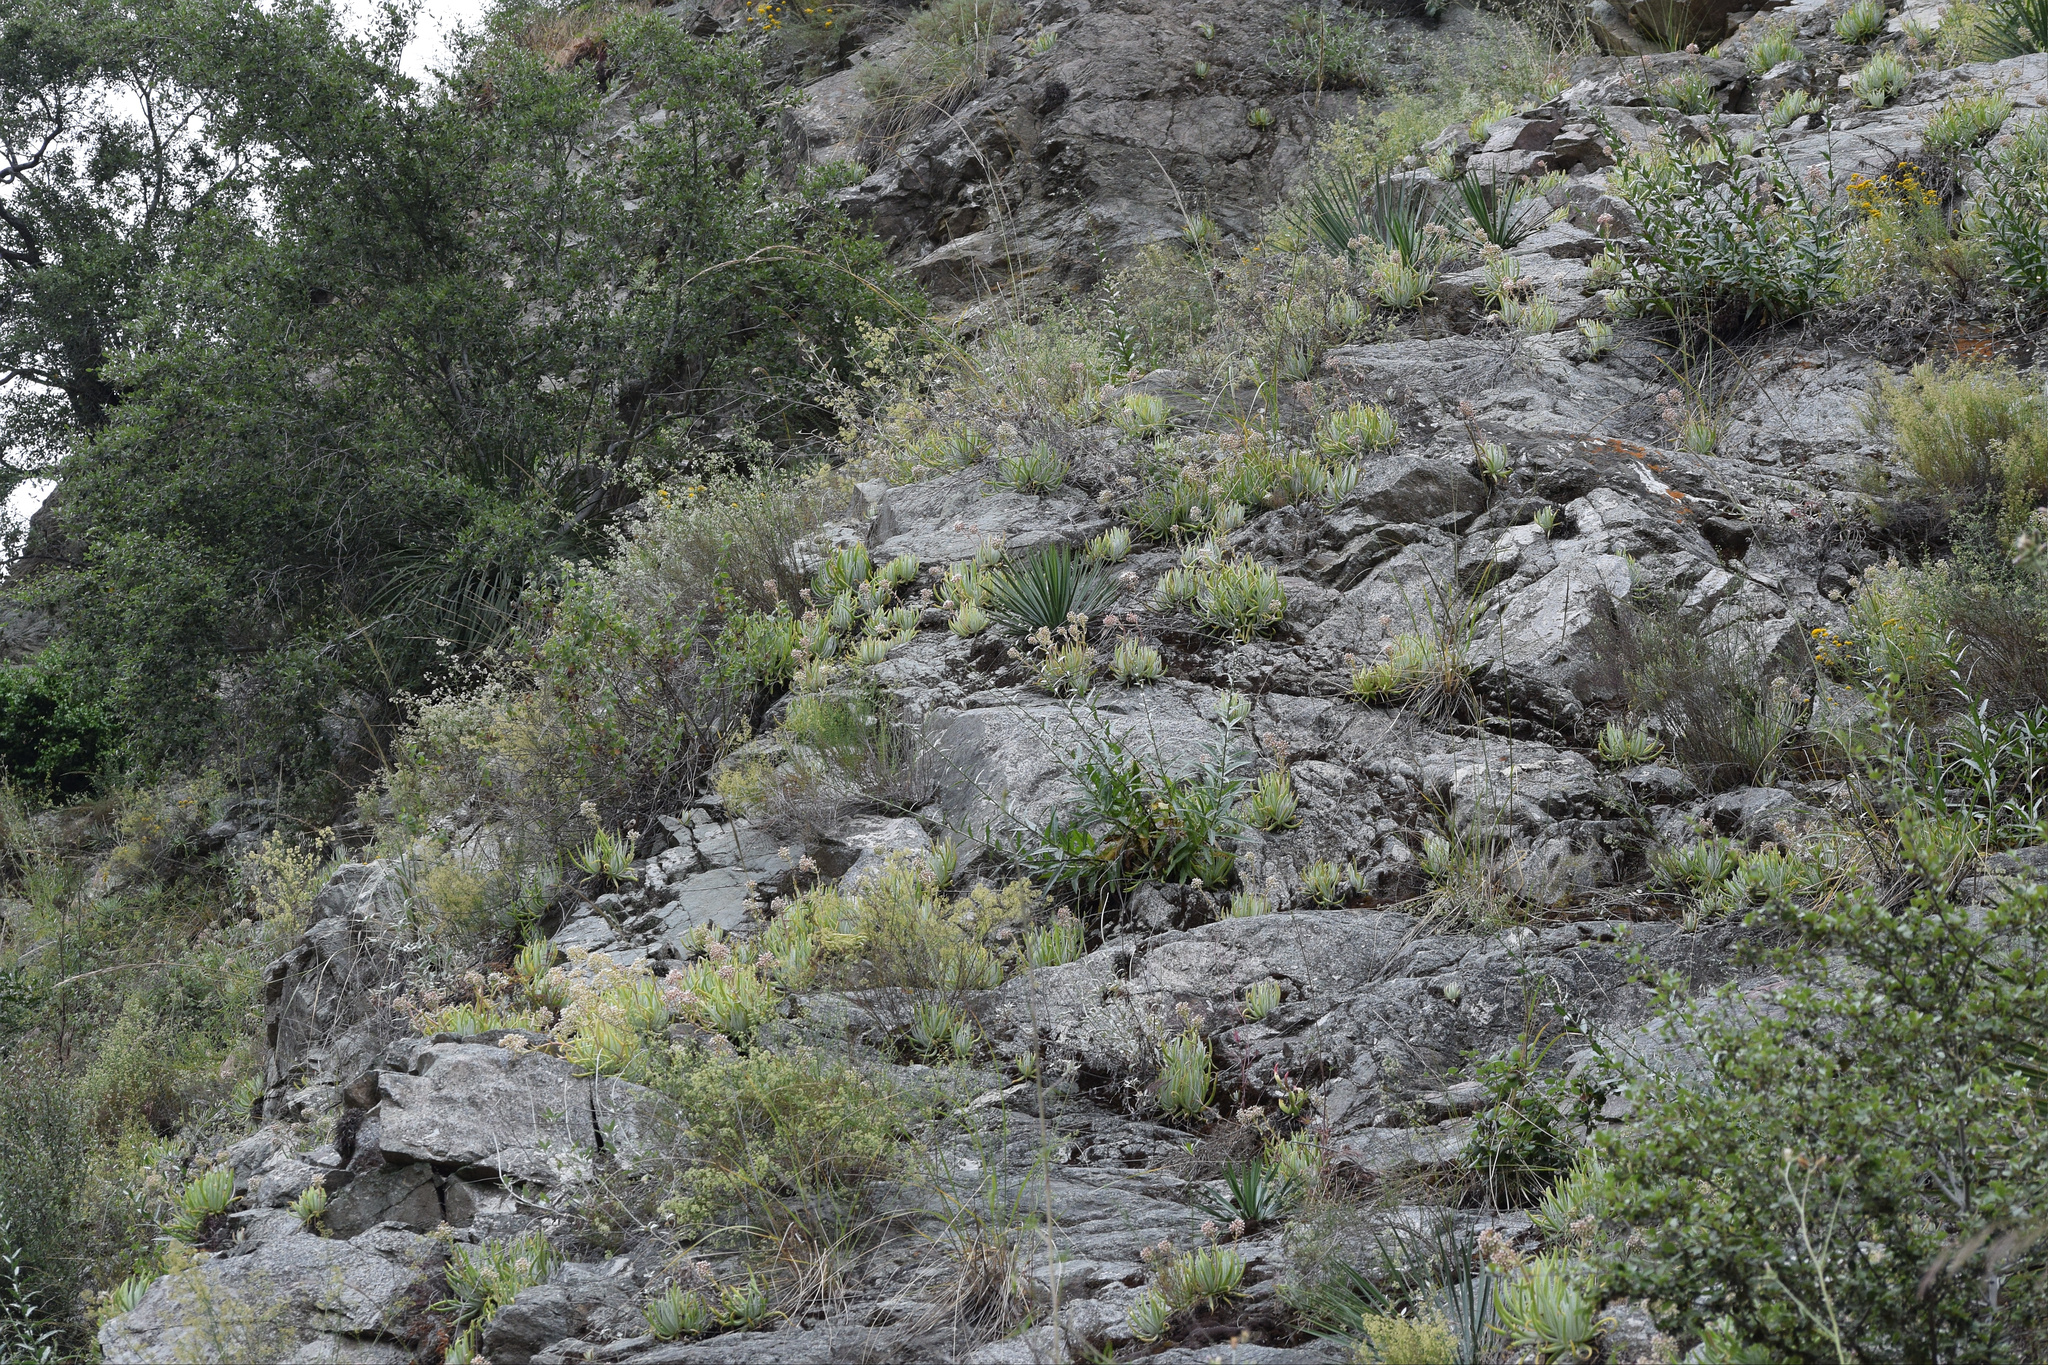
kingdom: Plantae
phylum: Tracheophyta
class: Magnoliopsida
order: Saxifragales
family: Crassulaceae
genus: Dudleya
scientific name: Dudleya densiflora
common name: San gabriel mountains dudleya
